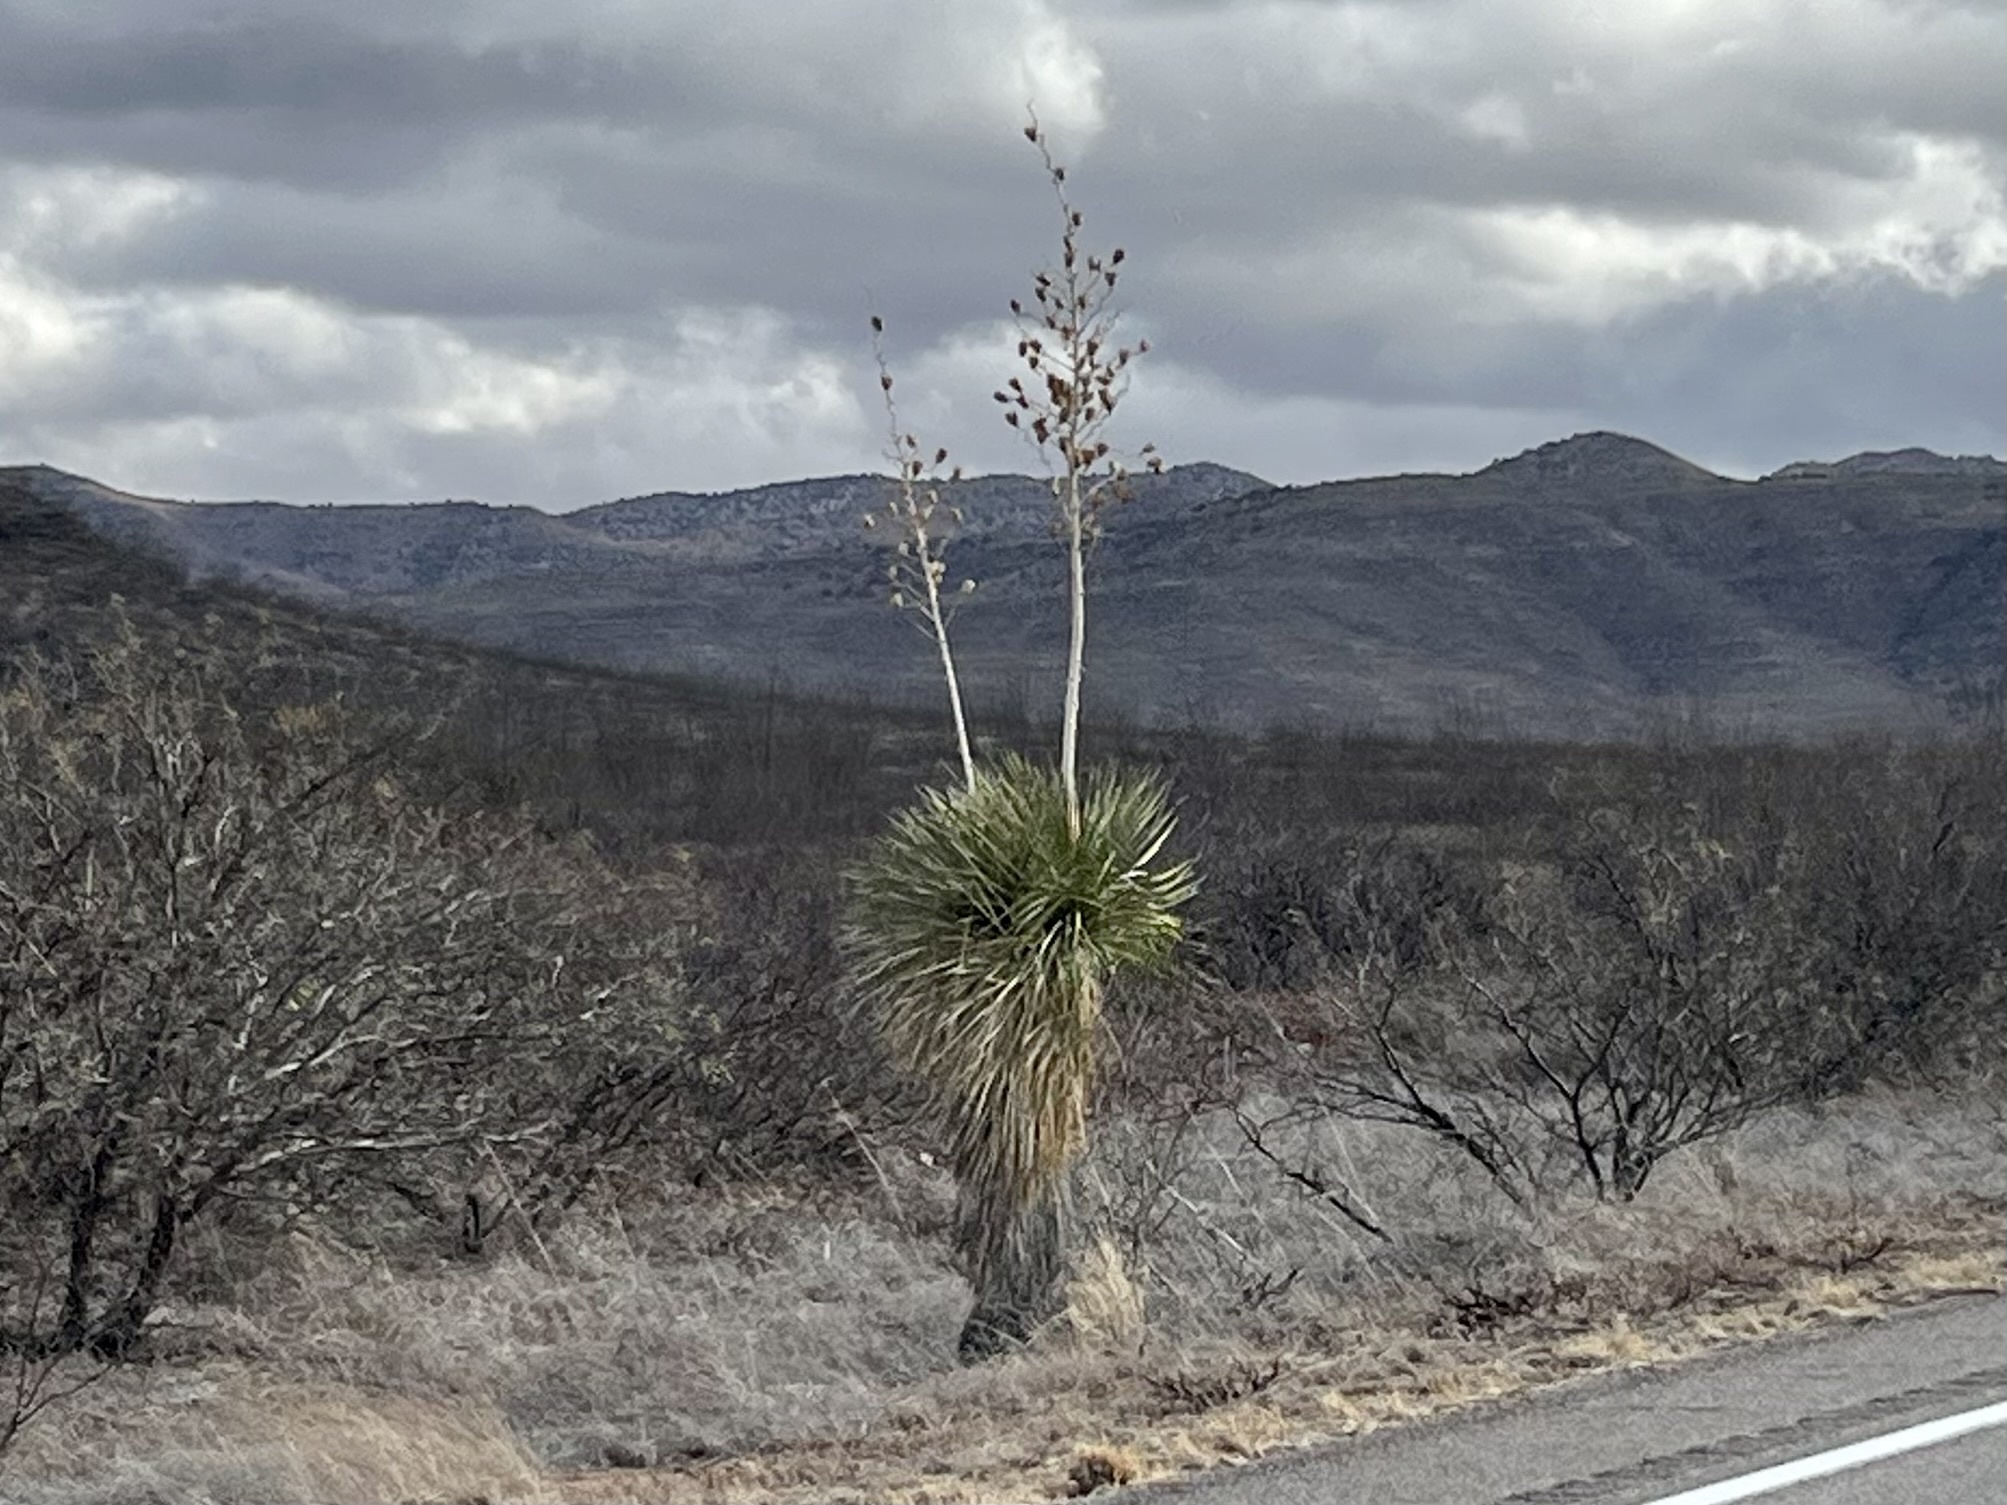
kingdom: Plantae
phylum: Tracheophyta
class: Liliopsida
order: Asparagales
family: Asparagaceae
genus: Yucca
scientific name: Yucca elata
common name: Palmella
